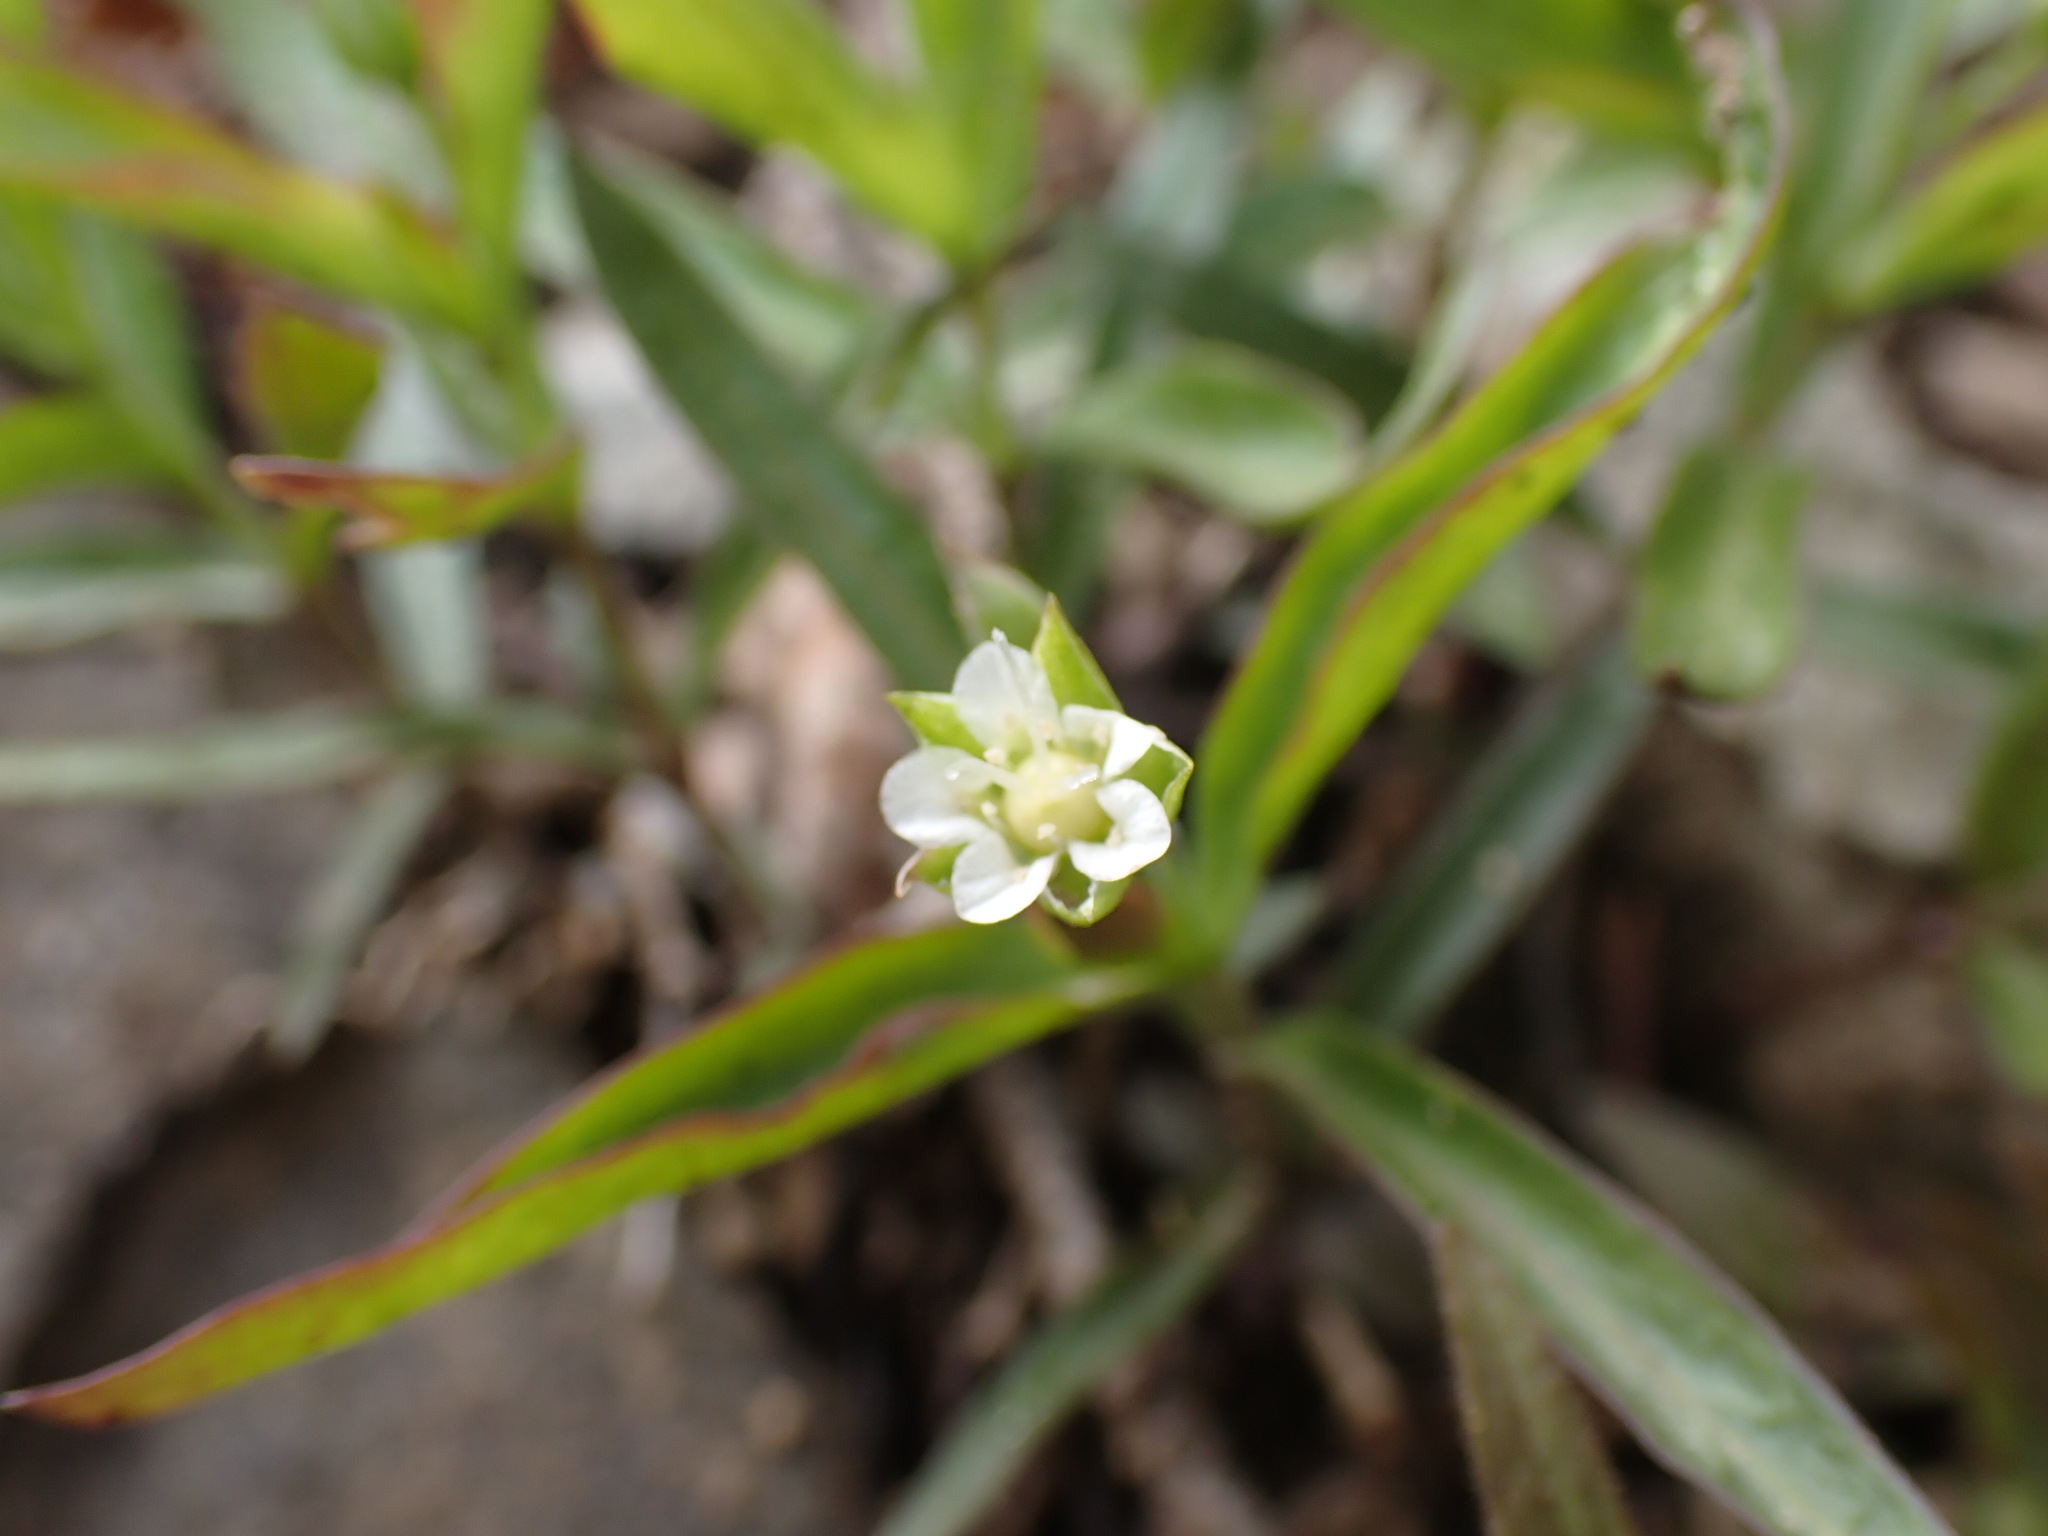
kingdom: Plantae
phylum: Tracheophyta
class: Magnoliopsida
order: Caryophyllales
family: Caryophyllaceae
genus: Moehringia
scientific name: Moehringia macrophylla
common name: Big-leaf sandwort
